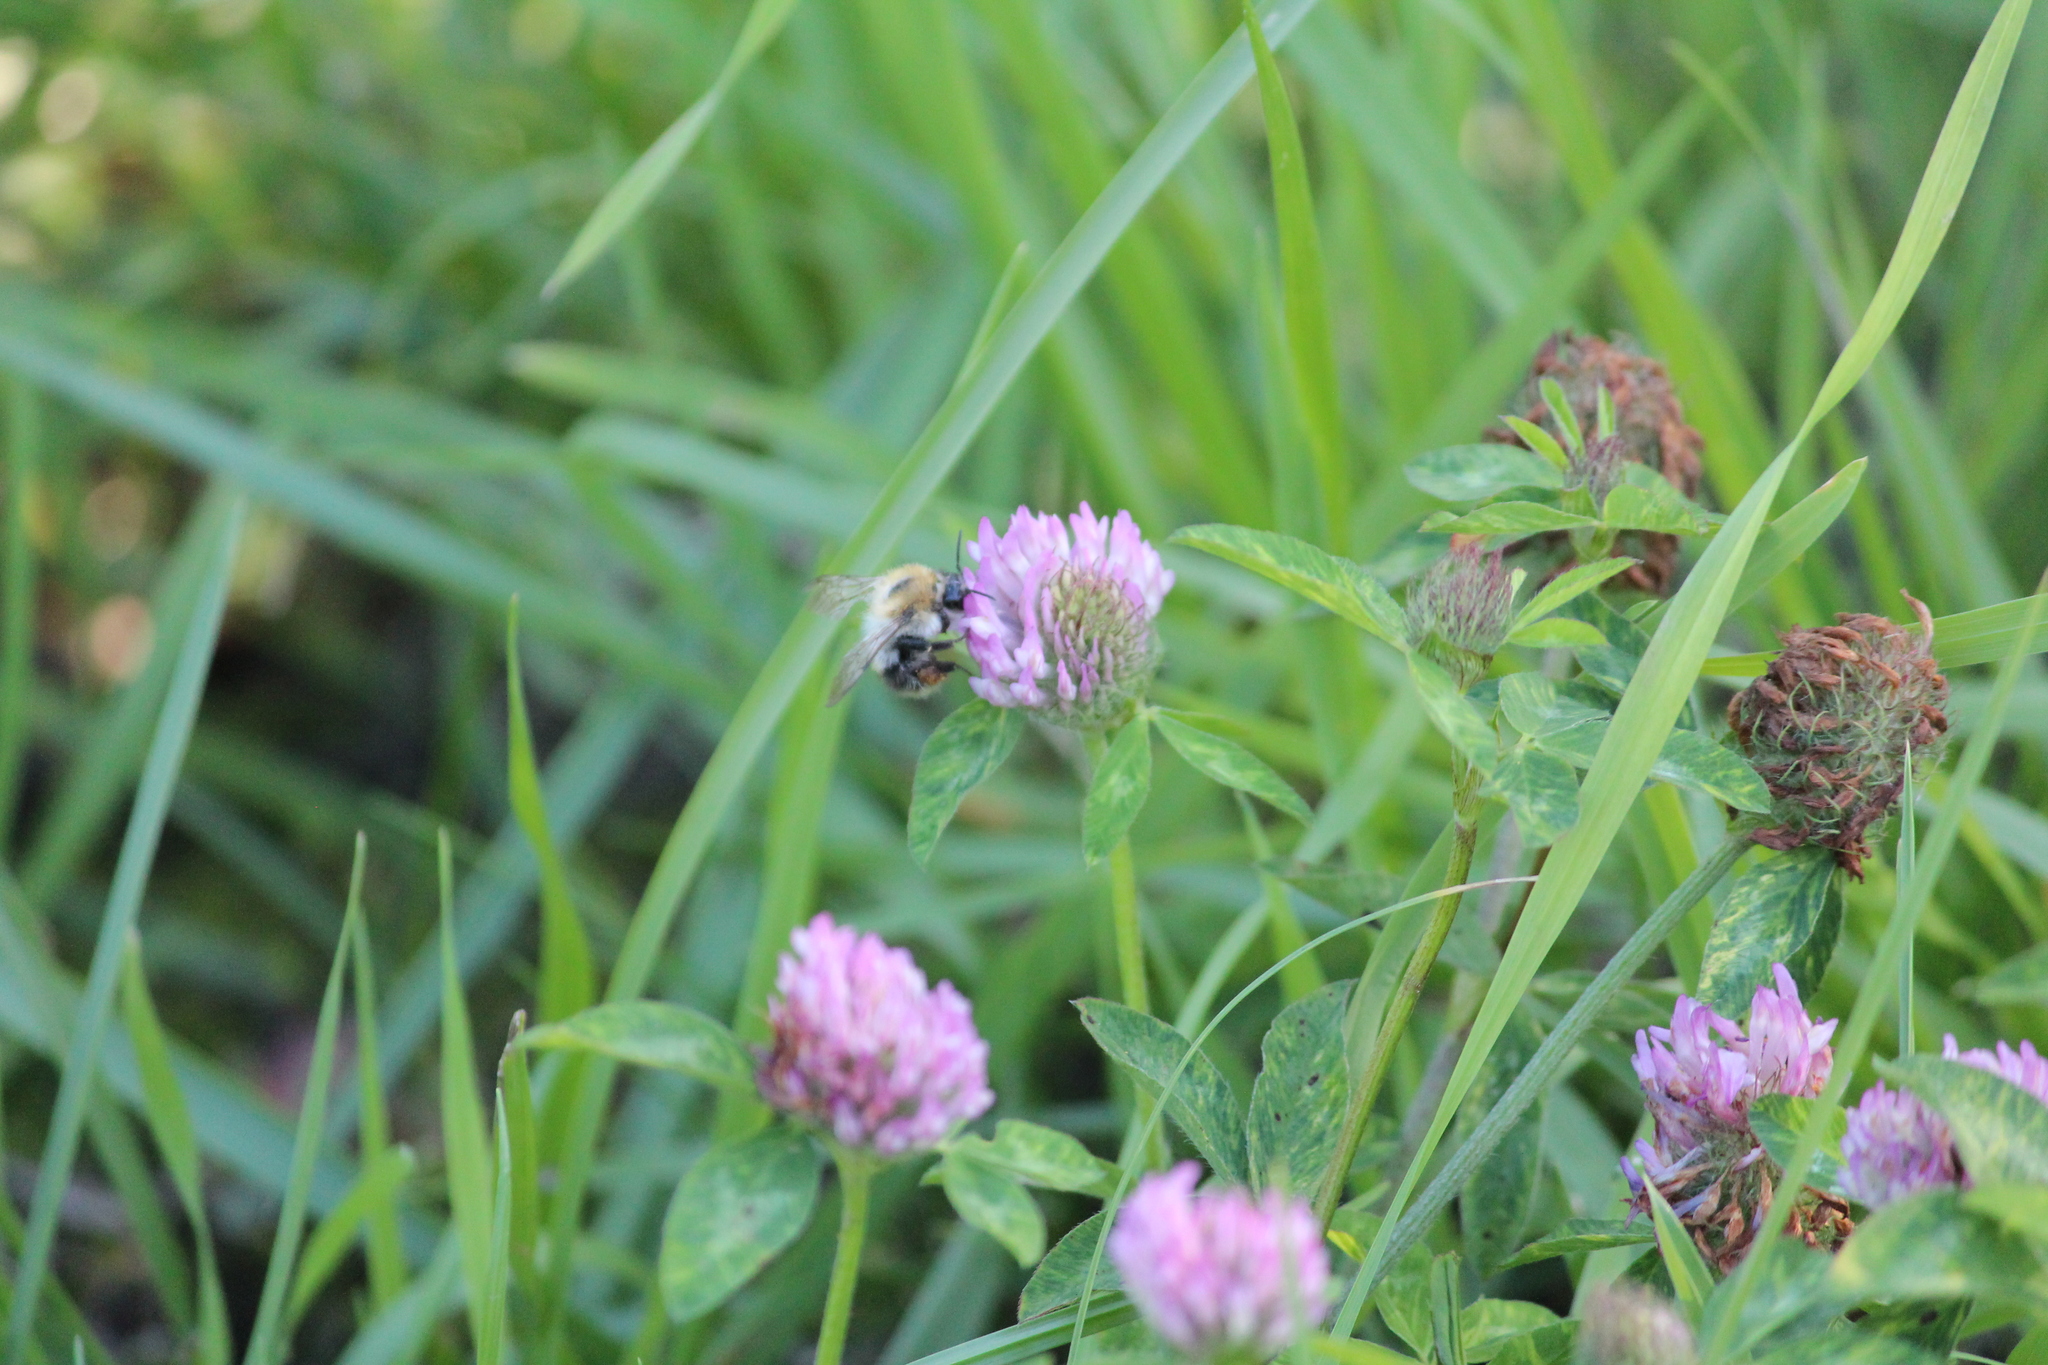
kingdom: Animalia
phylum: Arthropoda
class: Insecta
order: Hymenoptera
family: Apidae
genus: Bombus
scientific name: Bombus pascuorum
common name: Common carder bee
